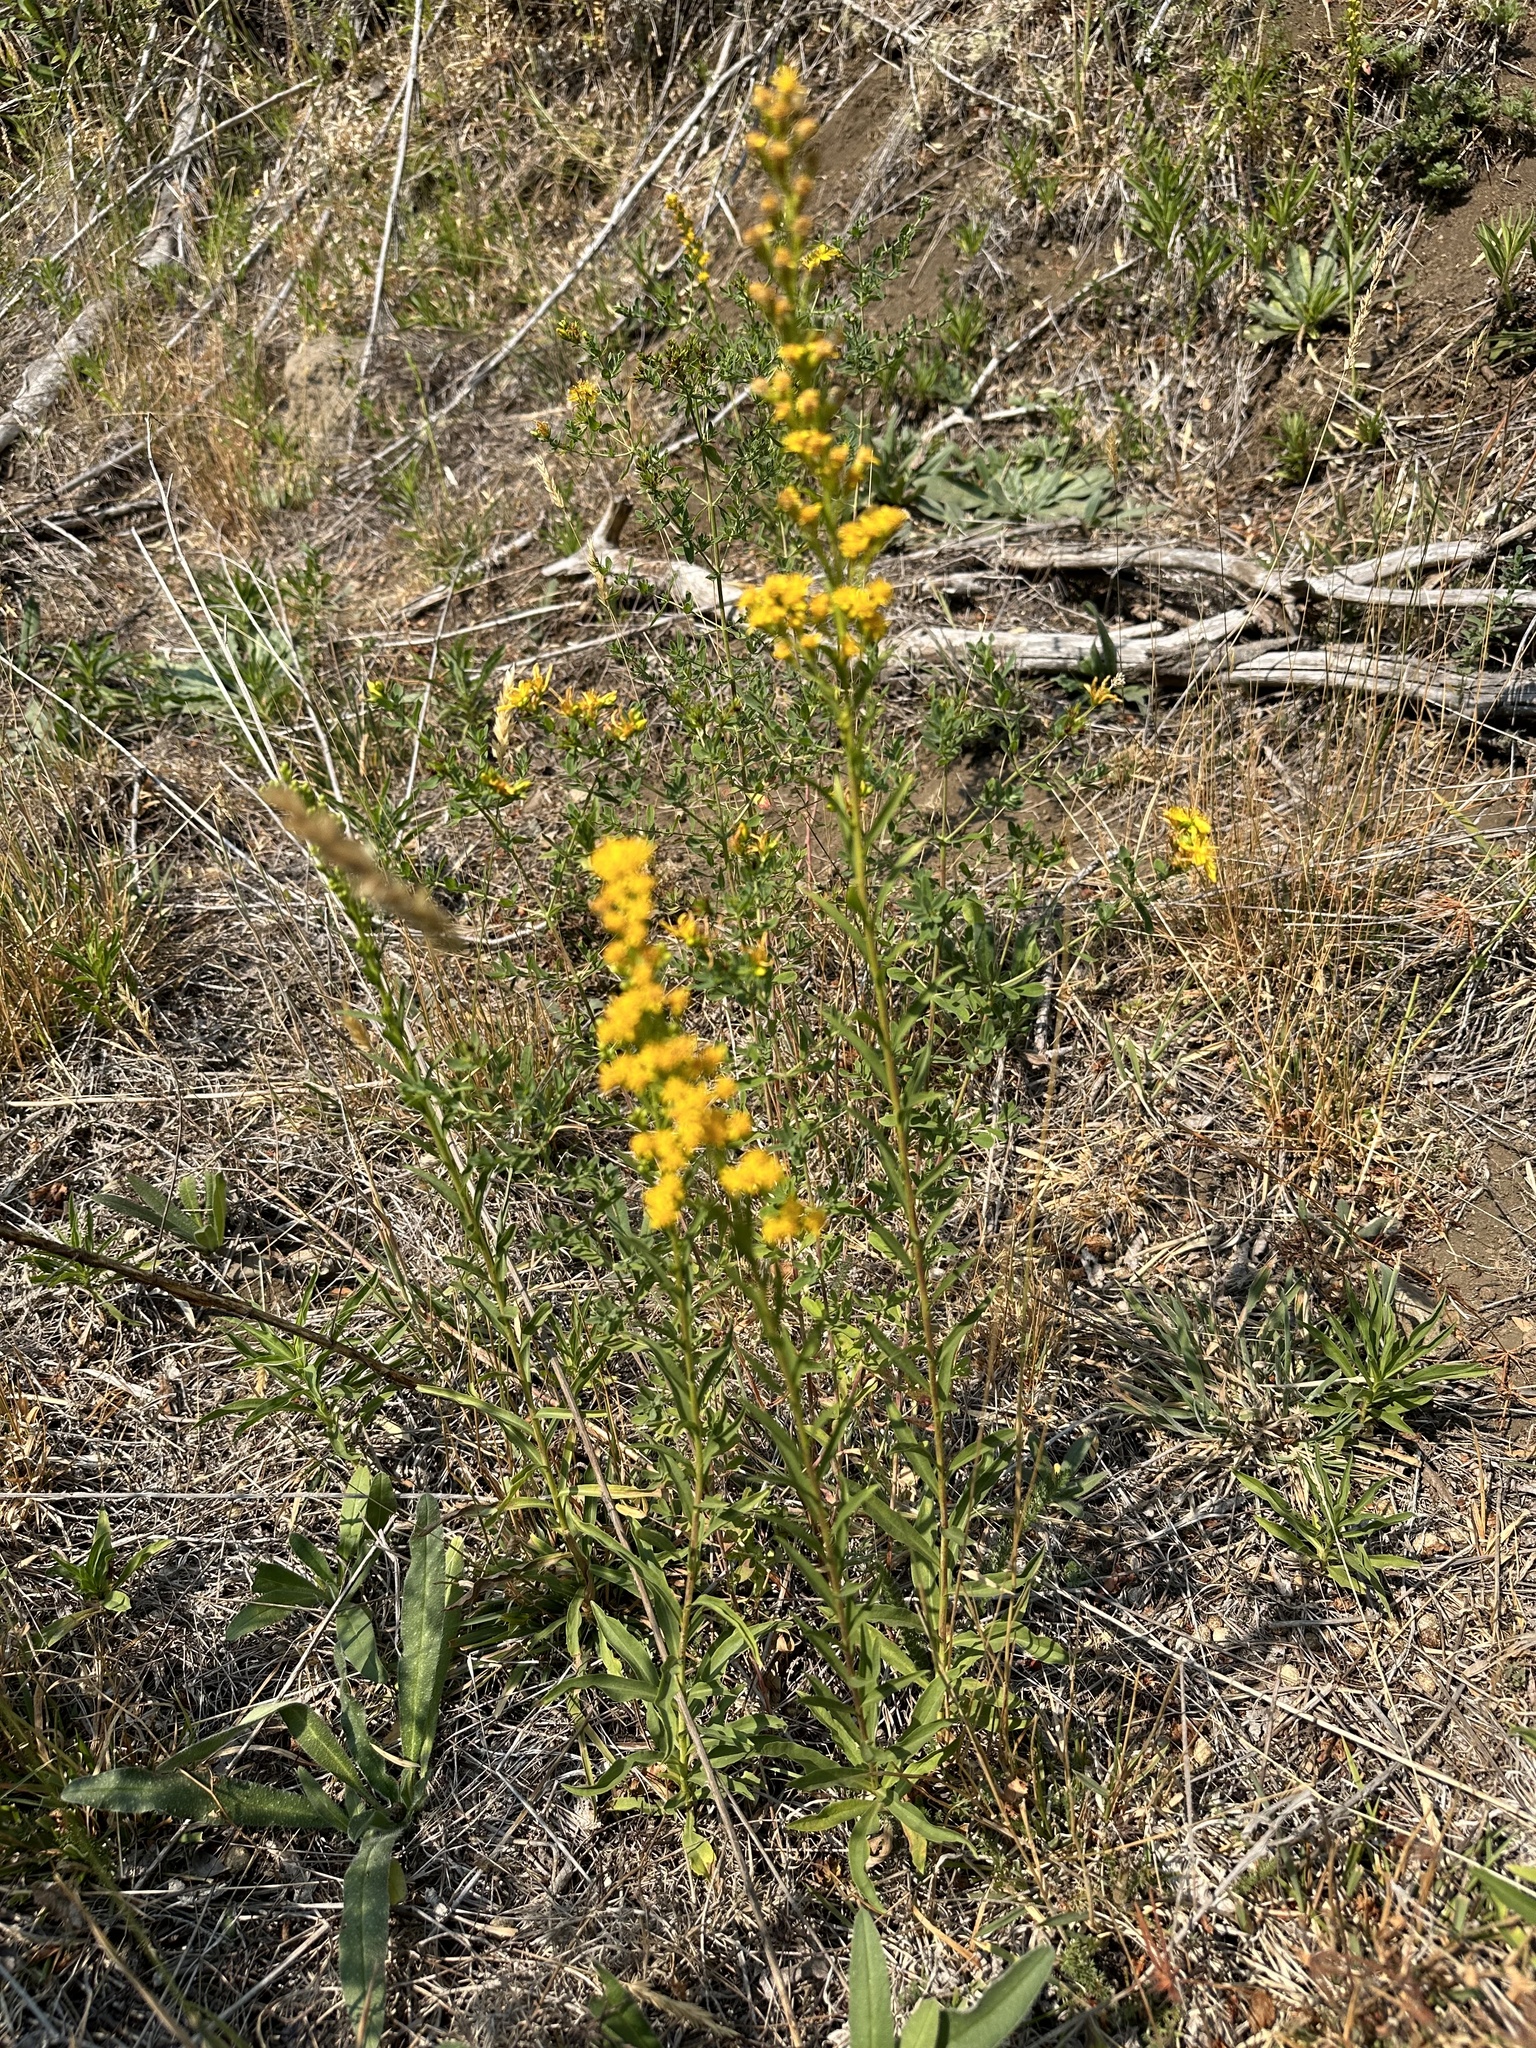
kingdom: Plantae
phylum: Tracheophyta
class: Magnoliopsida
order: Asterales
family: Asteraceae
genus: Solidago
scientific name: Solidago chilensis
